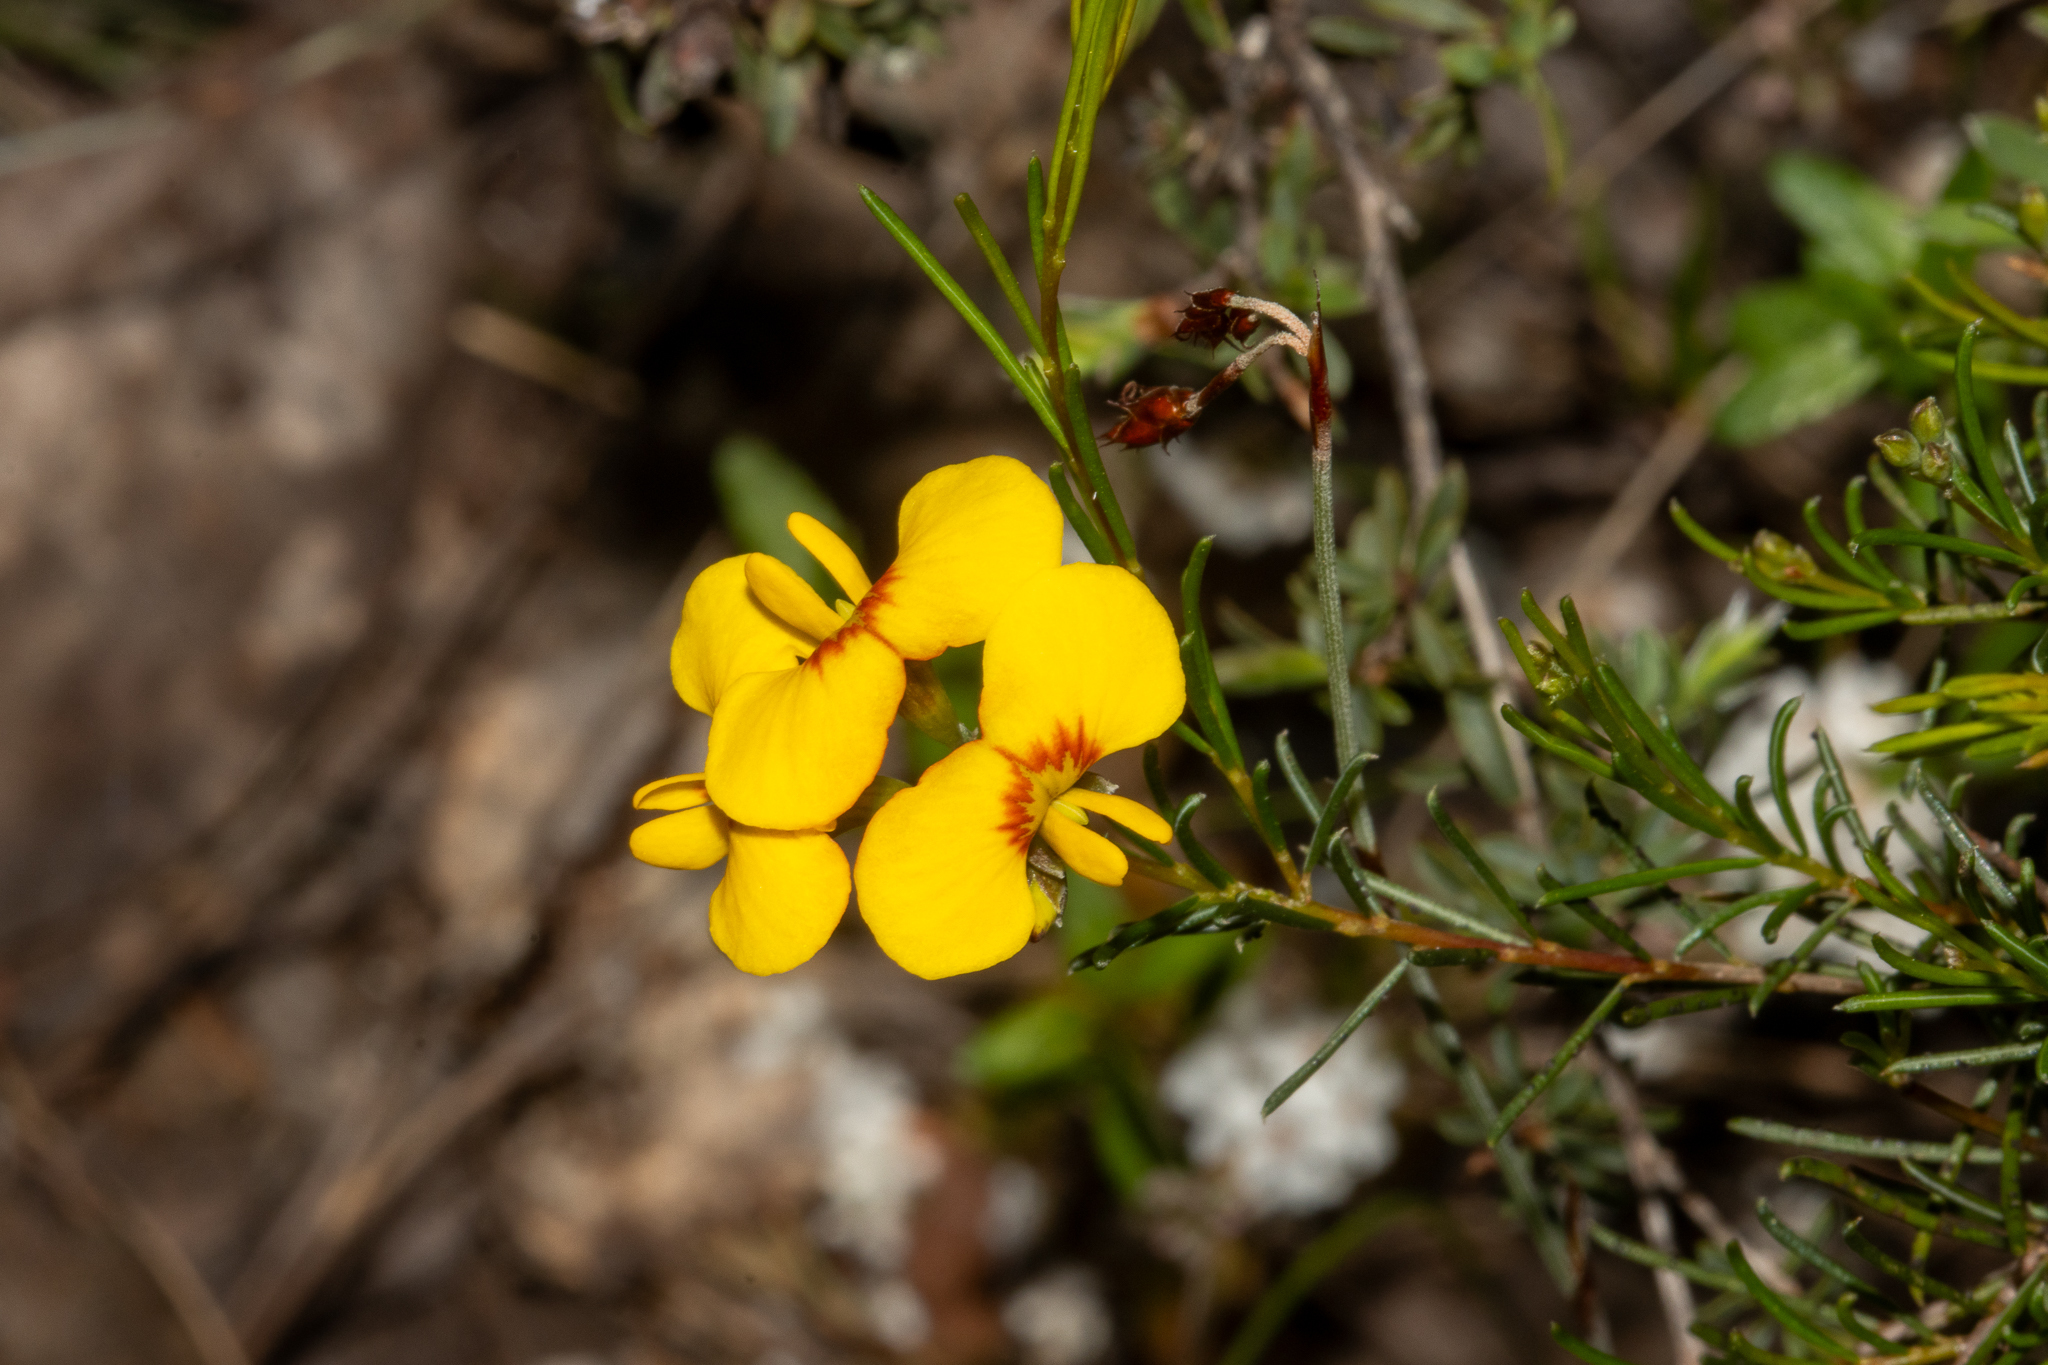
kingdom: Plantae
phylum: Tracheophyta
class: Magnoliopsida
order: Fabales
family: Fabaceae
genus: Dillwynia
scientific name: Dillwynia glaberrima
